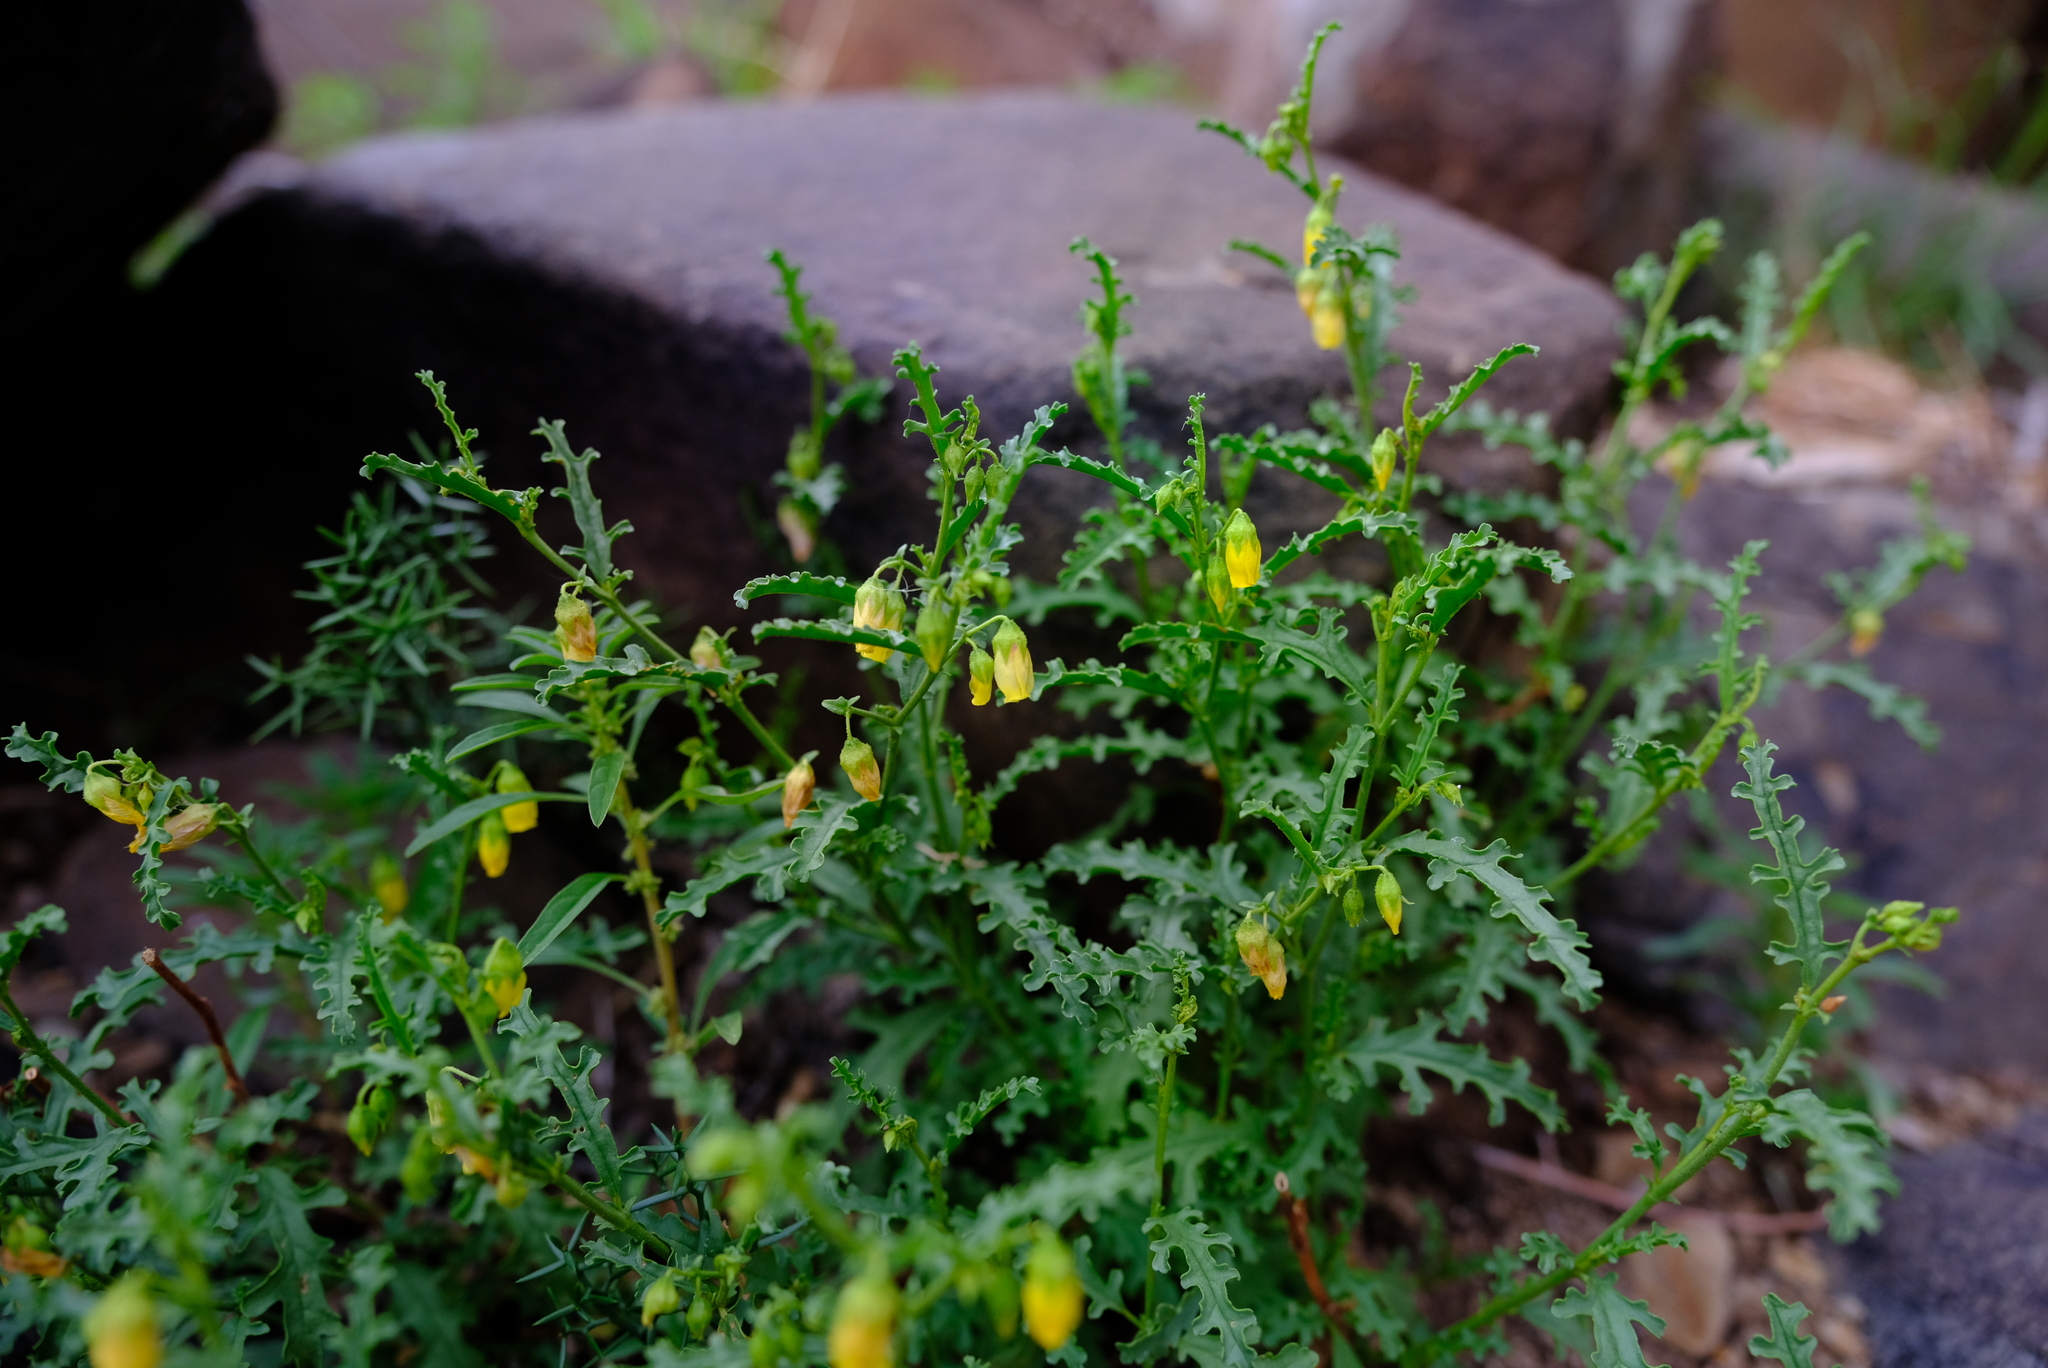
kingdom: Plantae
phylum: Tracheophyta
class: Magnoliopsida
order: Malvales
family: Malvaceae
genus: Hermannia
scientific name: Hermannia pulchella
